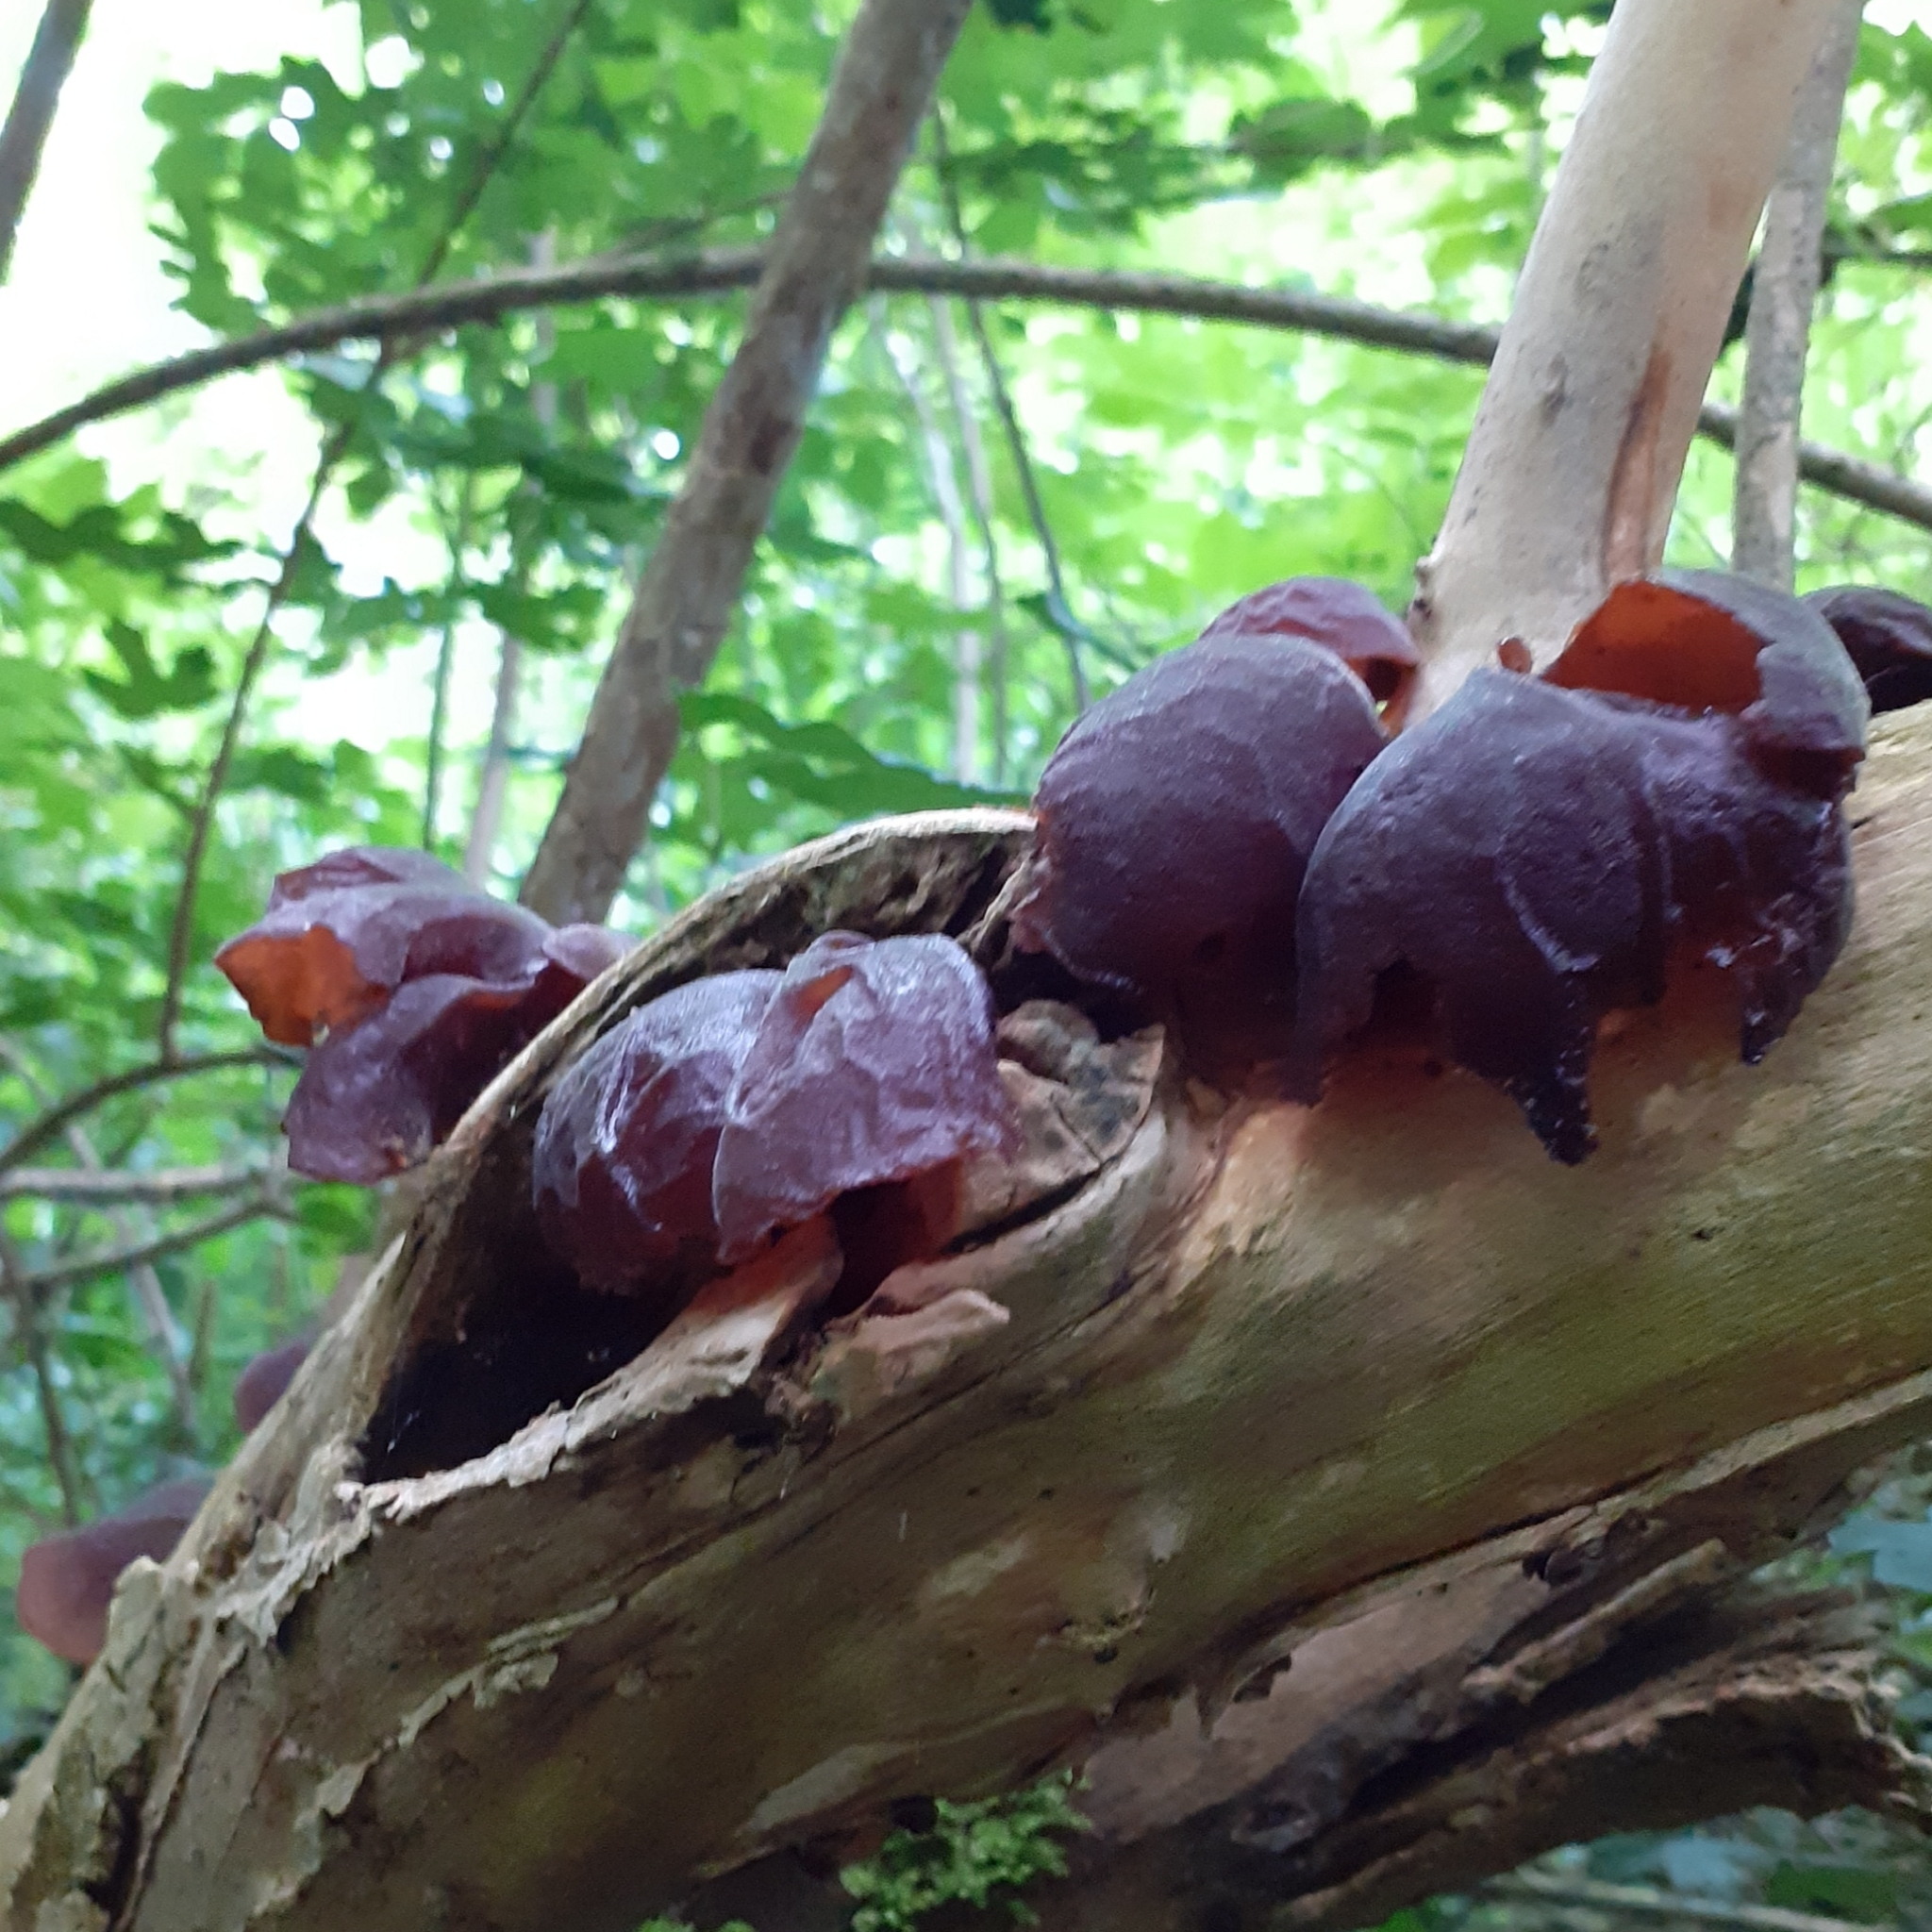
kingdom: Fungi
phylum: Basidiomycota
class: Agaricomycetes
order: Auriculariales
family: Auriculariaceae
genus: Auricularia
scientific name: Auricularia auricula-judae
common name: Jelly ear
